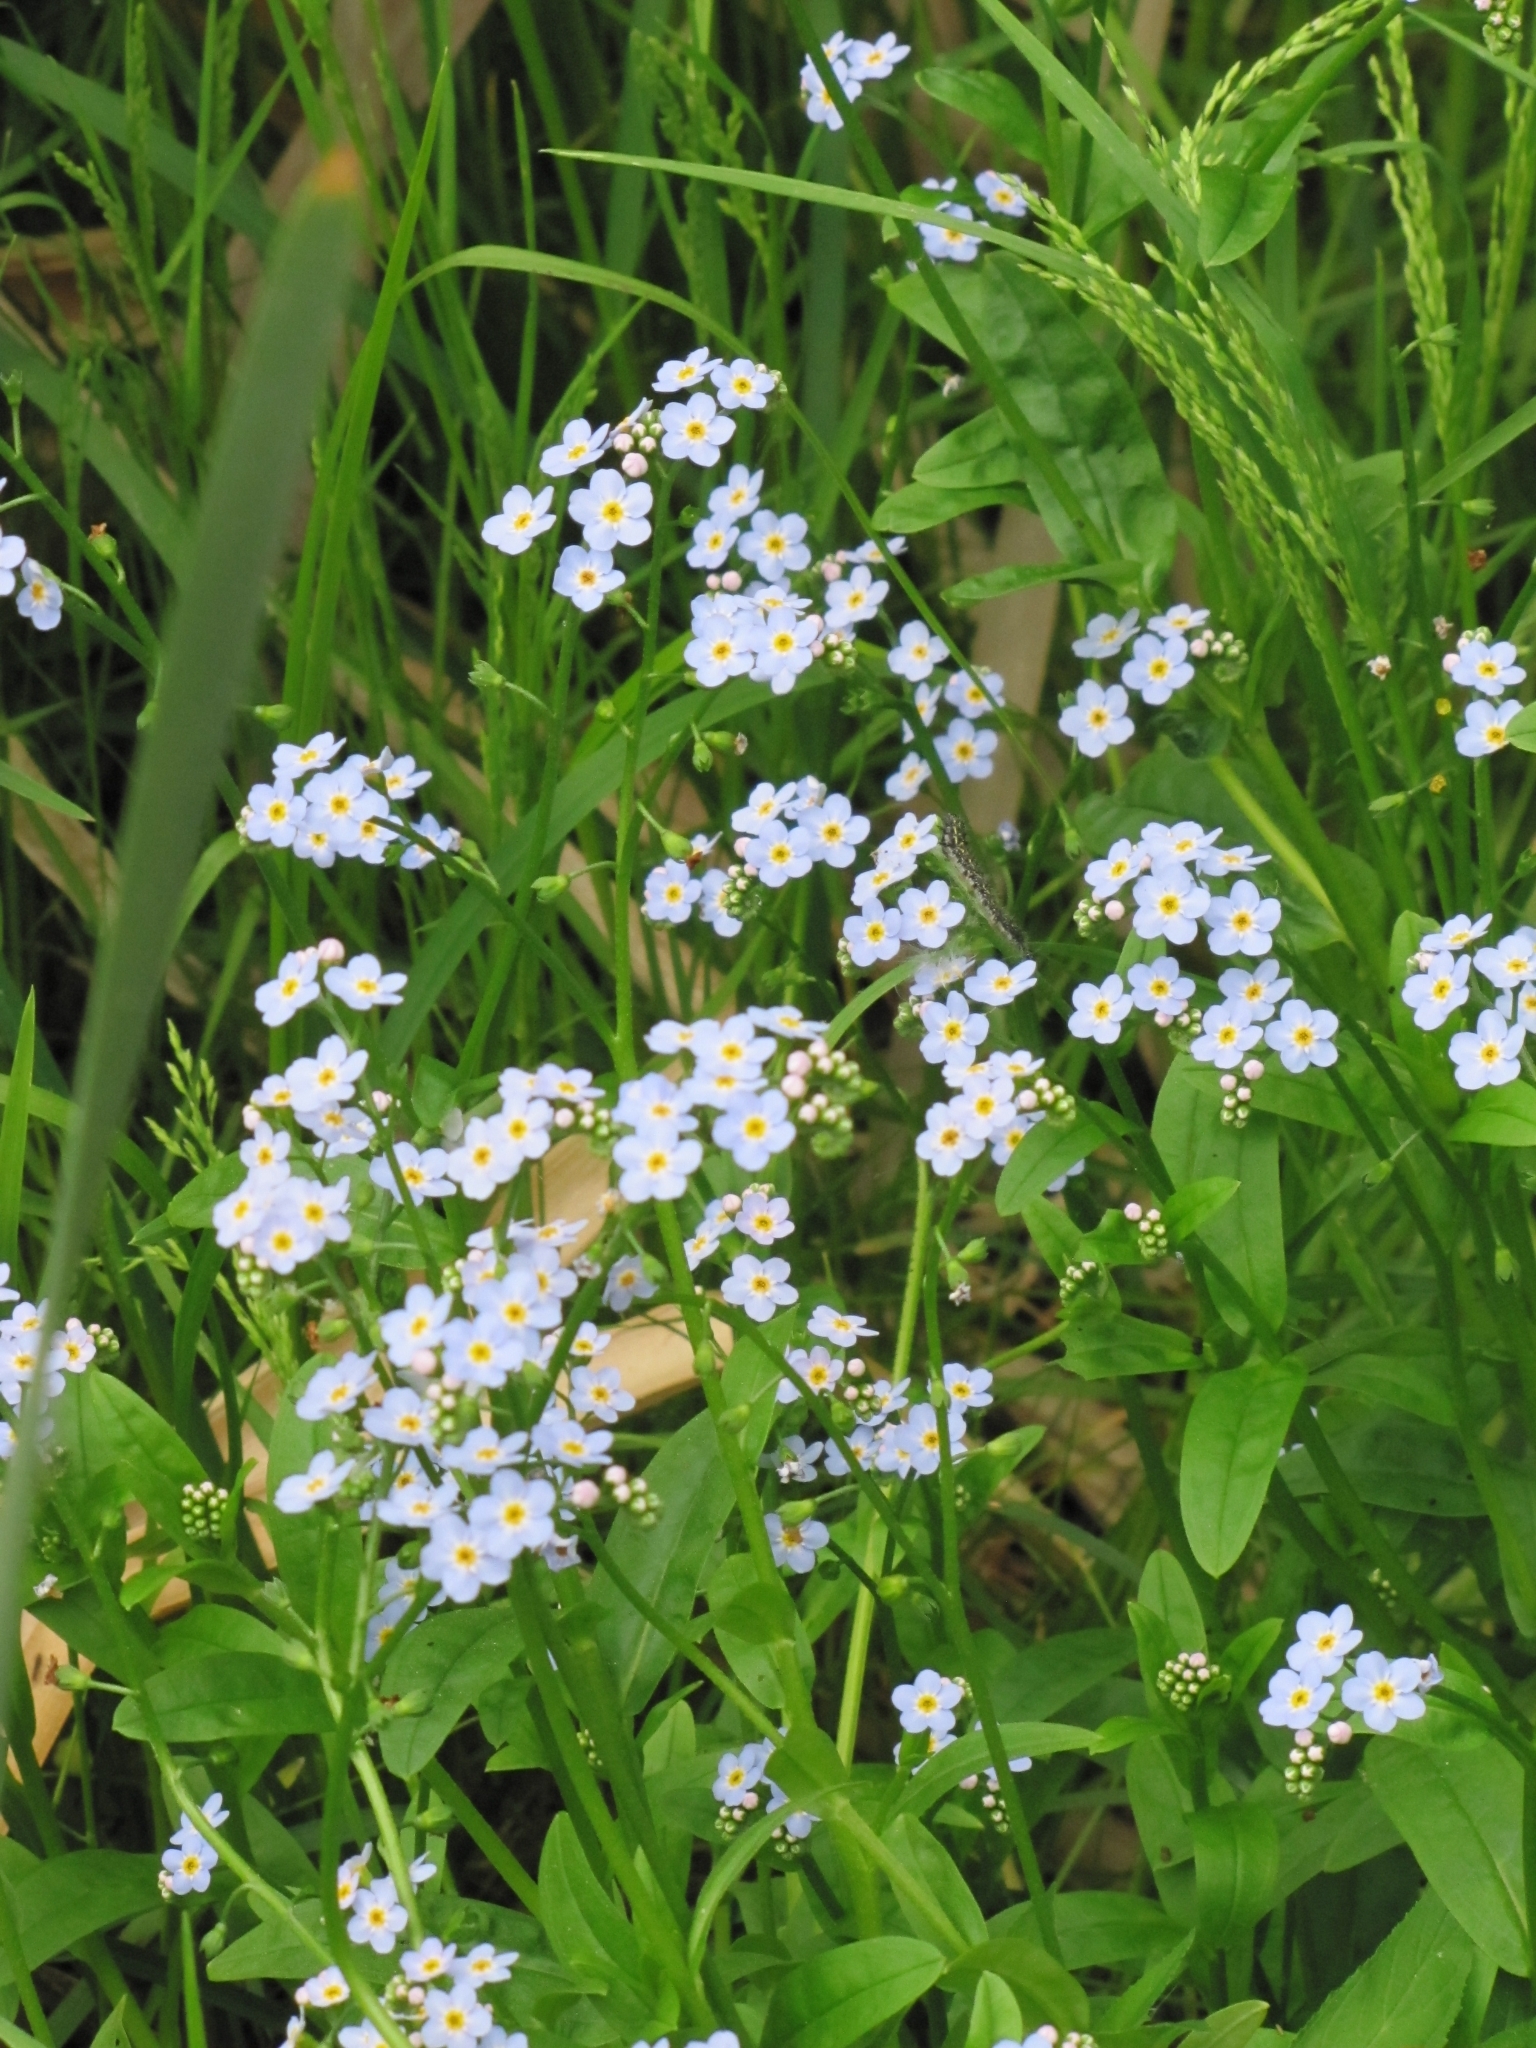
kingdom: Plantae
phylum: Tracheophyta
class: Magnoliopsida
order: Boraginales
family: Boraginaceae
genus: Myosotis
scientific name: Myosotis scorpioides
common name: Water forget-me-not
